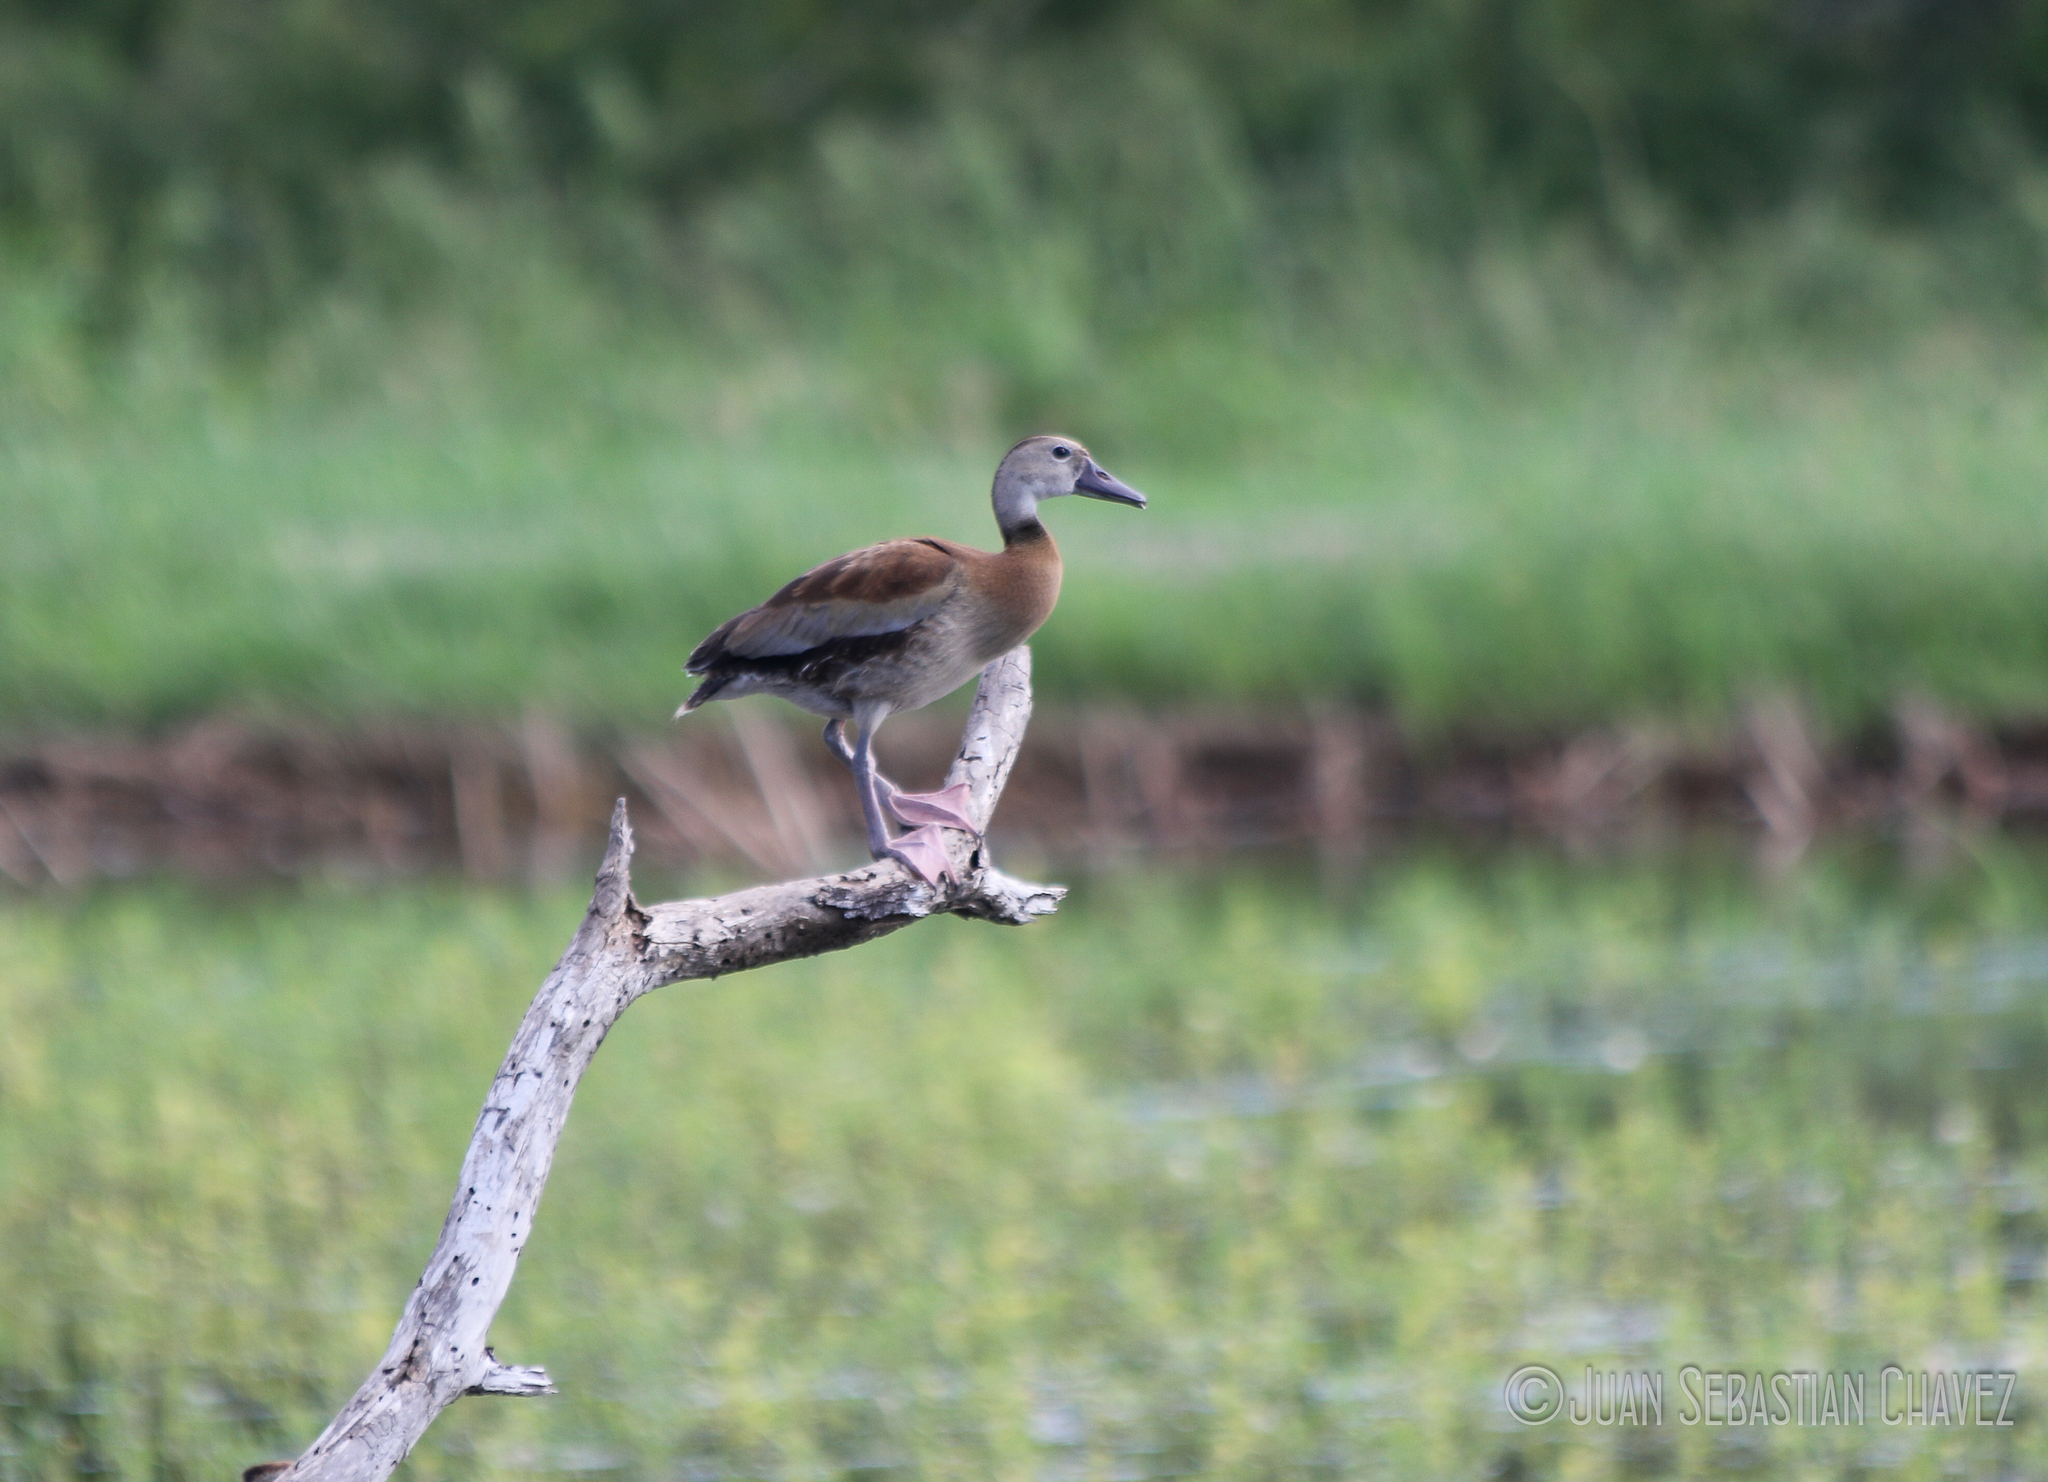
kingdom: Animalia
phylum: Chordata
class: Aves
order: Anseriformes
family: Anatidae
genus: Dendrocygna
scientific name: Dendrocygna autumnalis
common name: Black-bellied whistling duck
